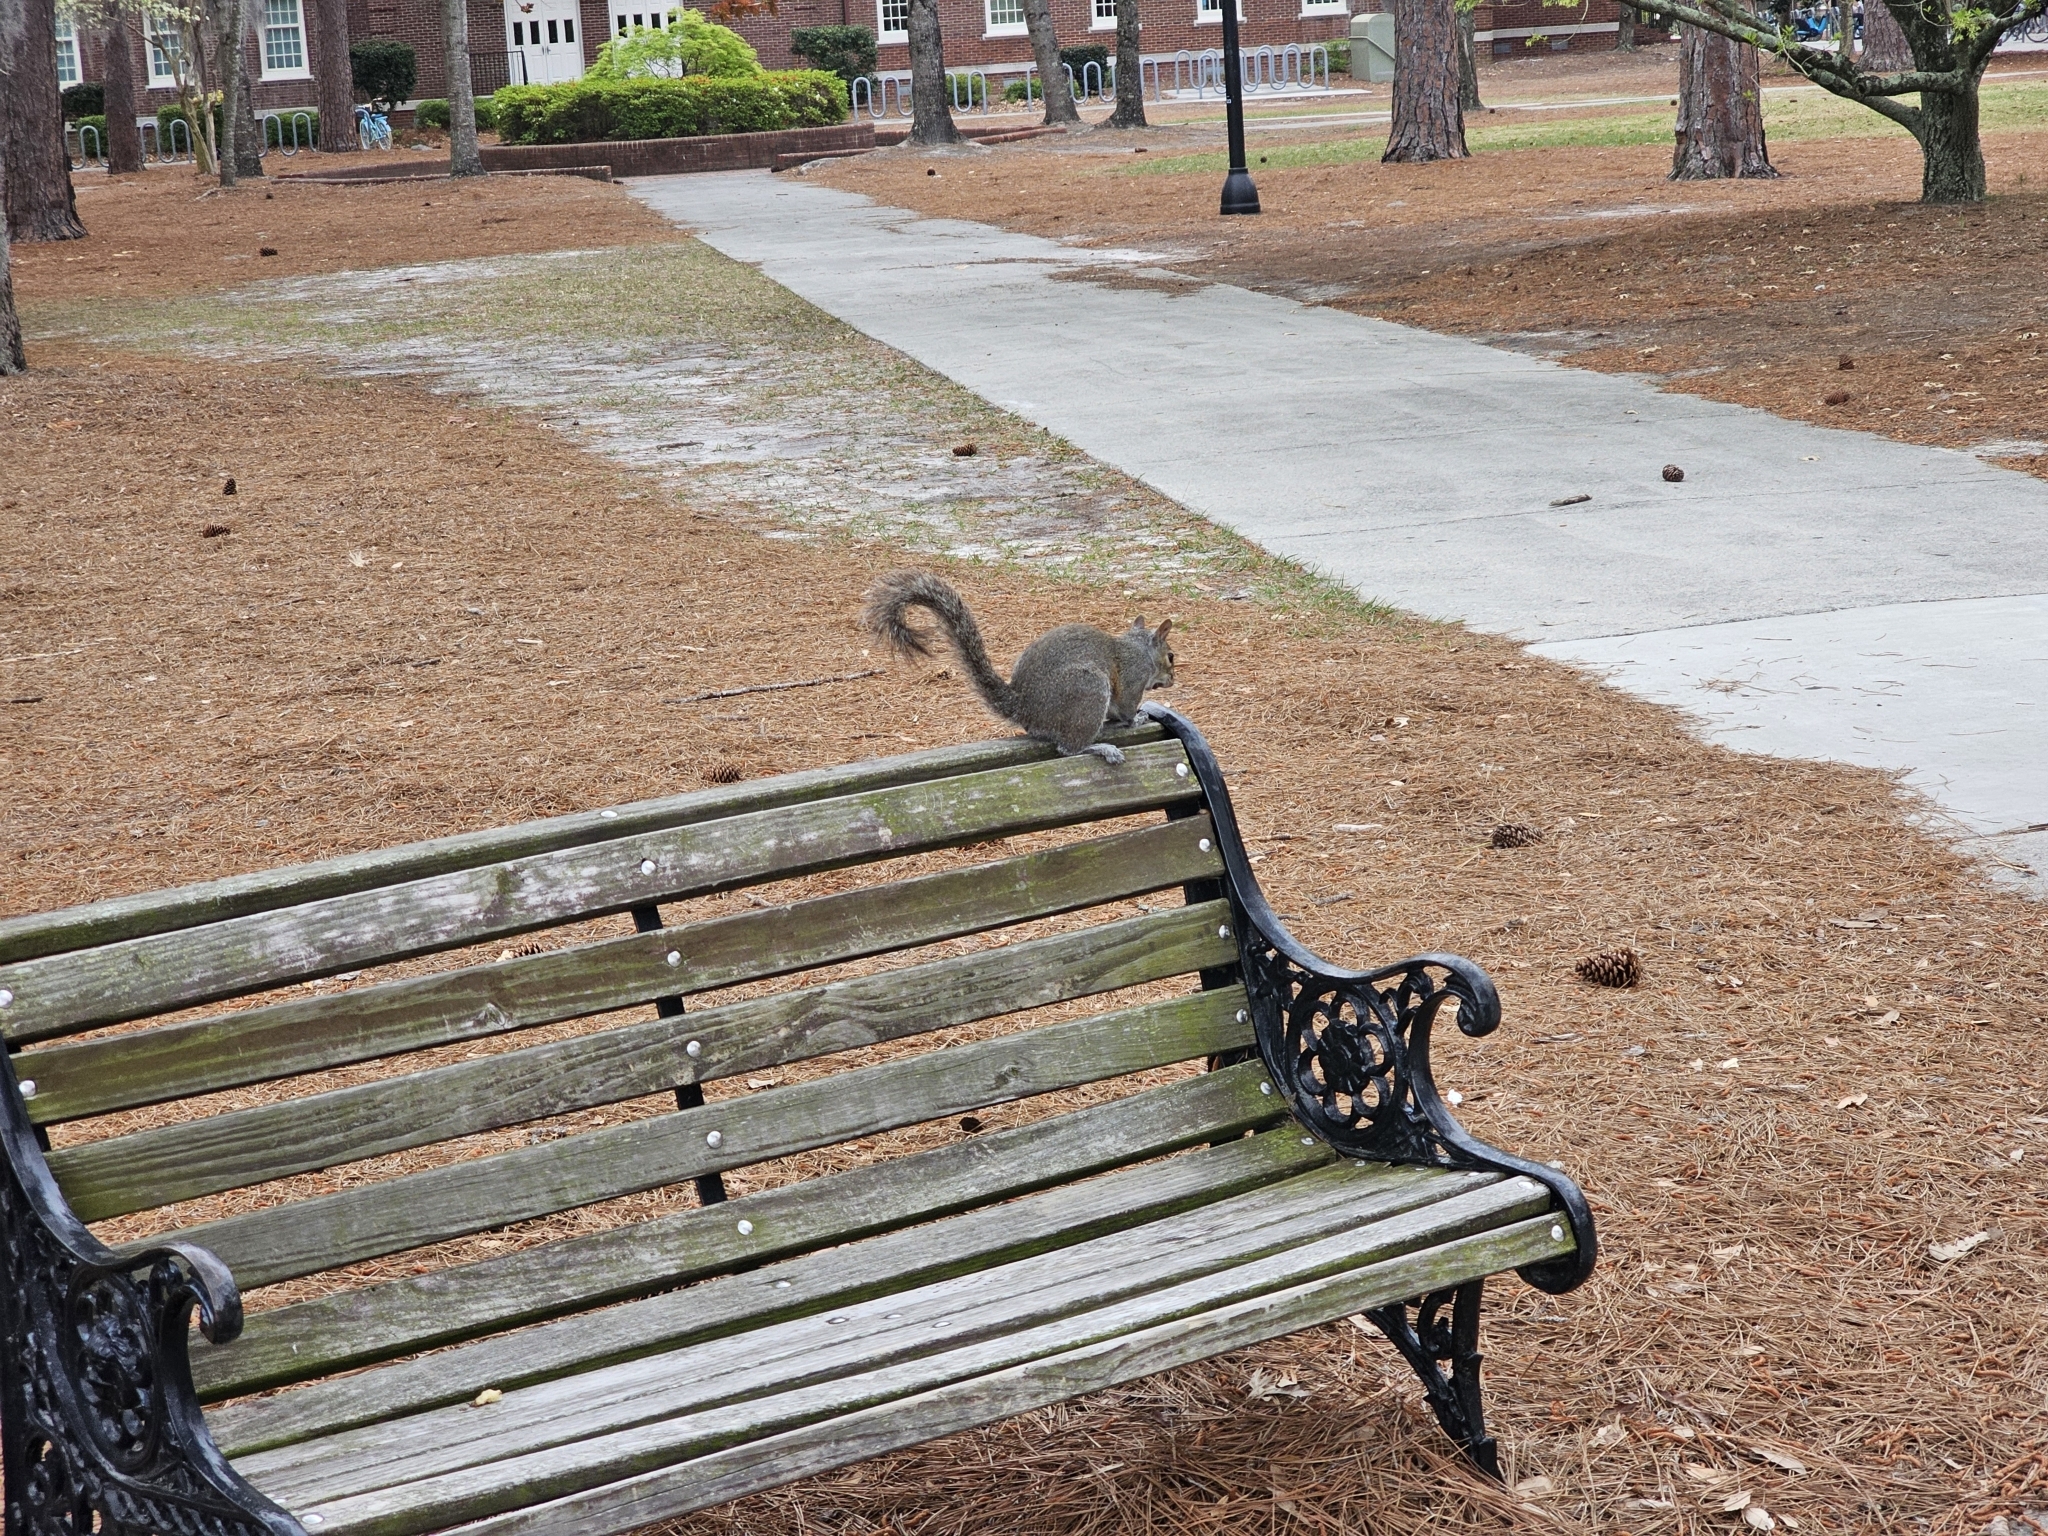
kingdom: Animalia
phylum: Chordata
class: Mammalia
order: Rodentia
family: Sciuridae
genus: Sciurus
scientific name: Sciurus carolinensis
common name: Eastern gray squirrel
